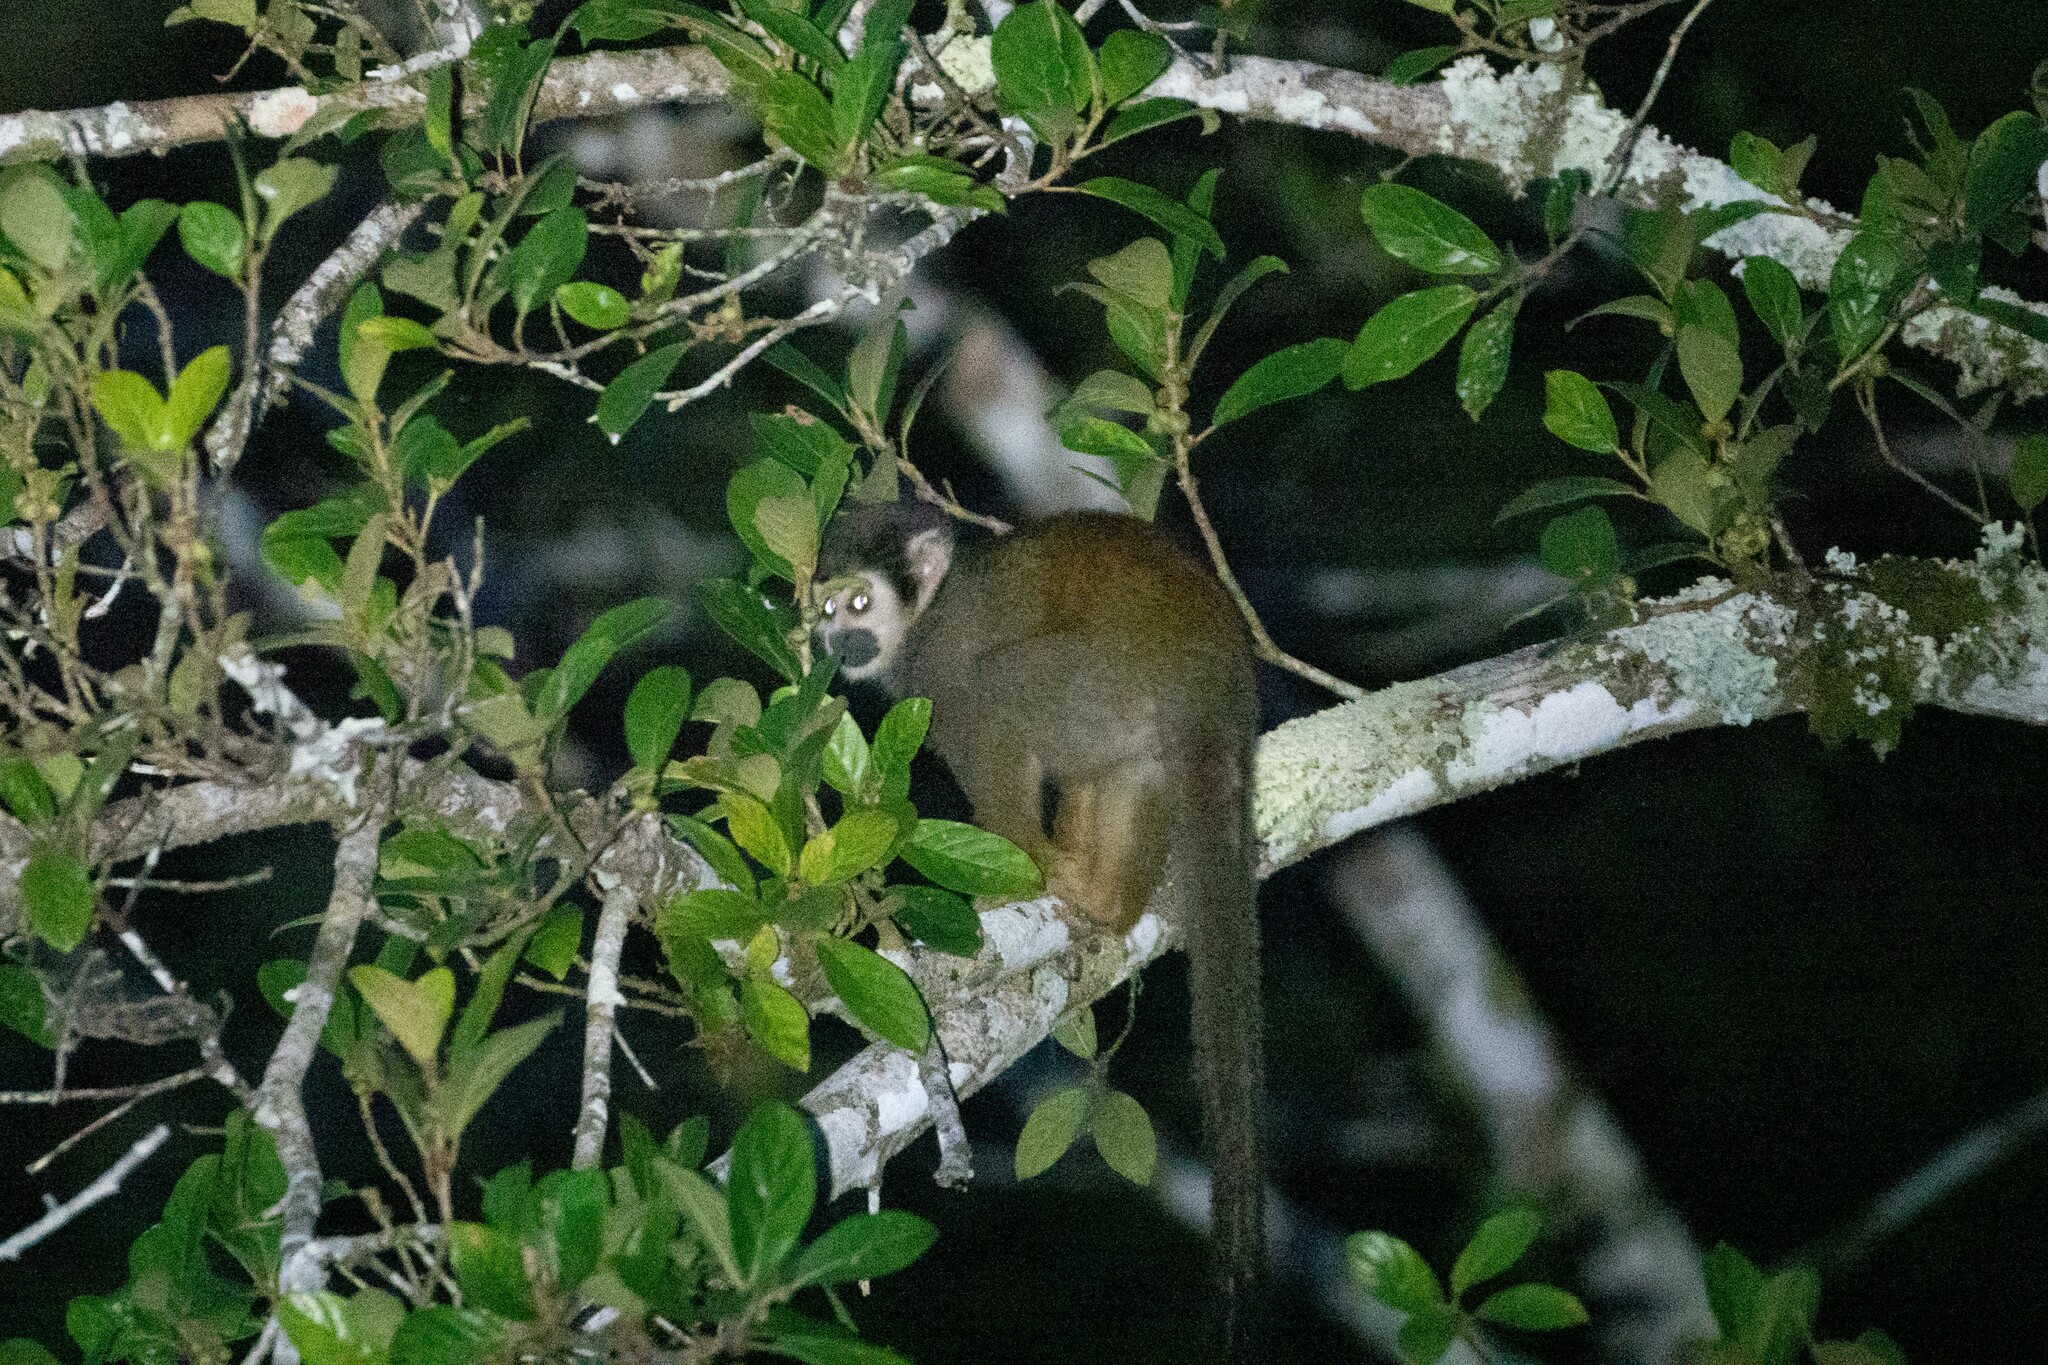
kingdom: Animalia
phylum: Chordata
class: Mammalia
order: Primates
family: Cebidae
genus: Saimiri
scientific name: Saimiri cassiquiarensis
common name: Humboldt’s squirrel monkey
